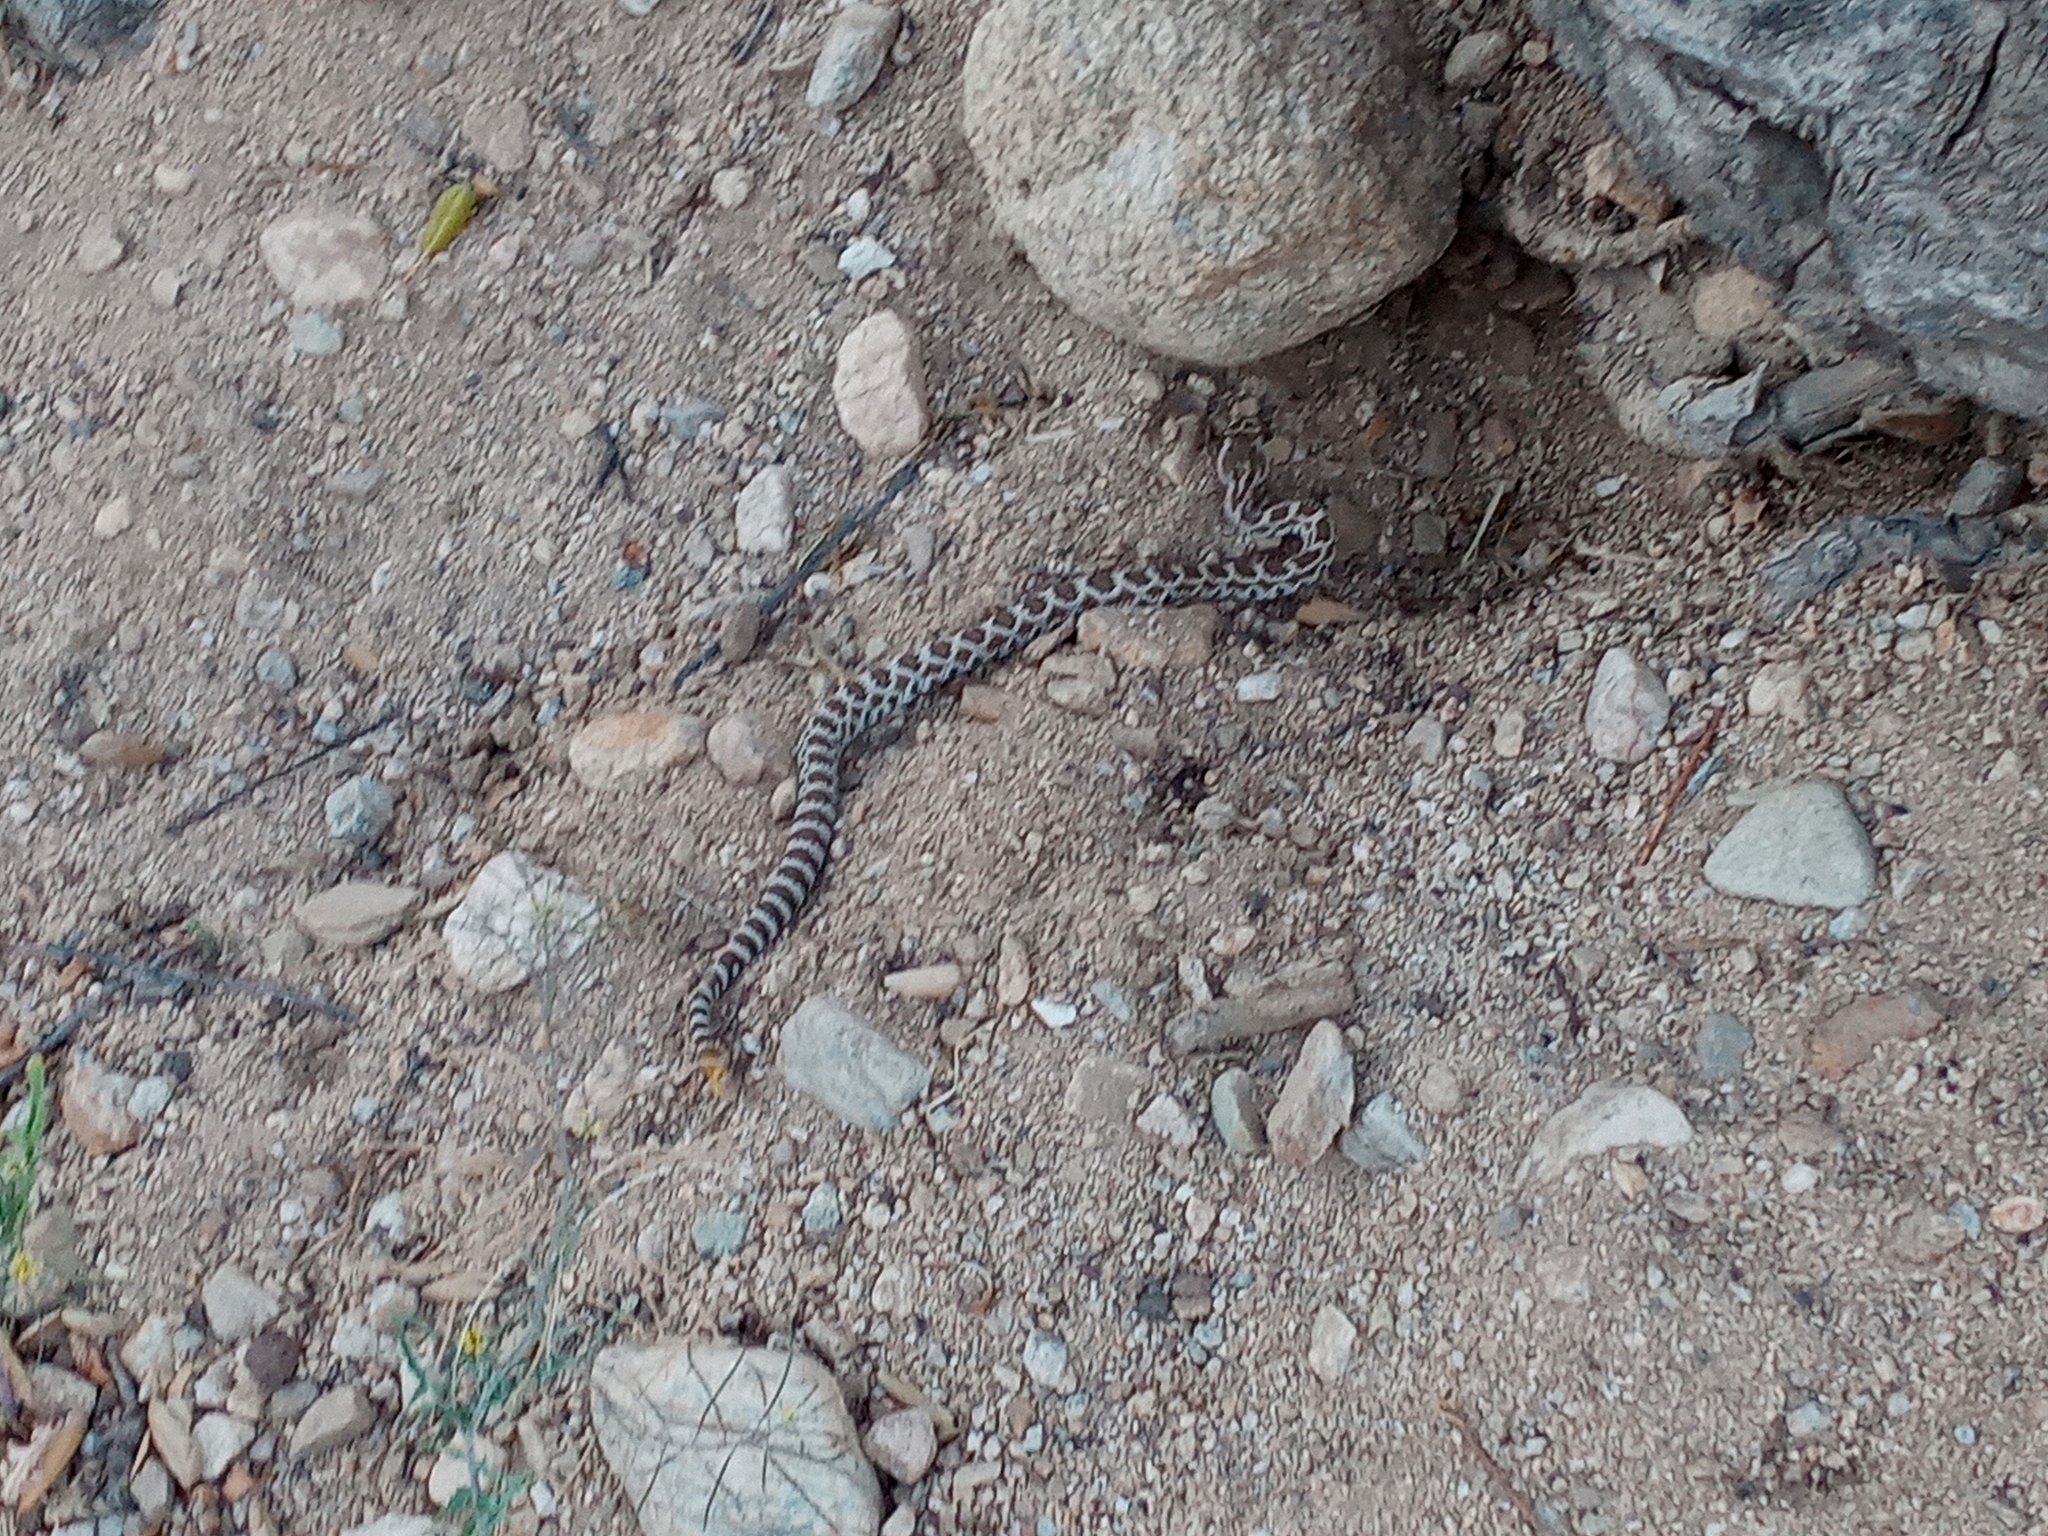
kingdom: Animalia
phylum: Chordata
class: Squamata
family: Viperidae
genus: Crotalus
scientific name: Crotalus oreganus
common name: Abyssus
